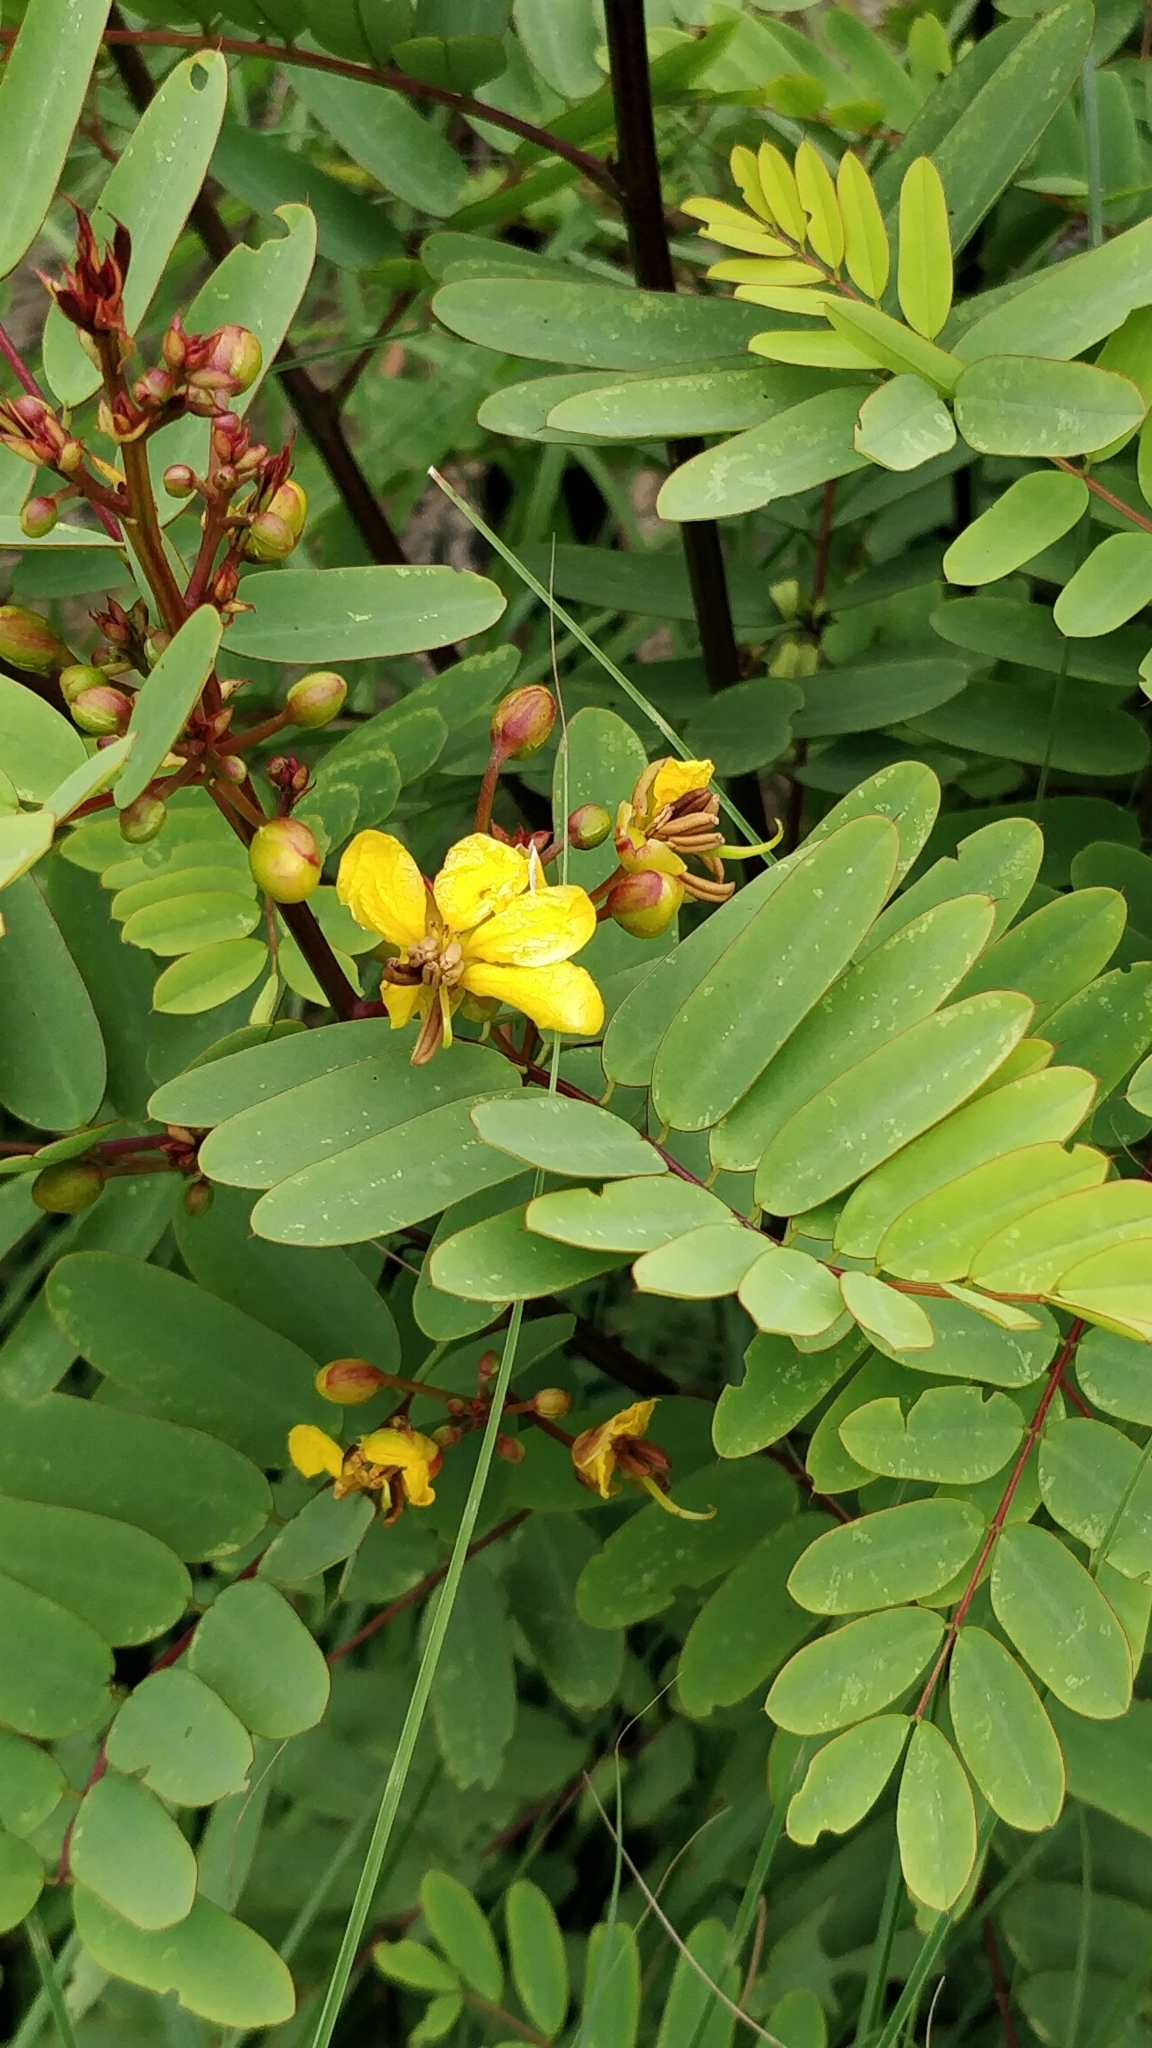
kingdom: Plantae
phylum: Tracheophyta
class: Magnoliopsida
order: Fabales
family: Fabaceae
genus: Senna
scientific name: Senna montana
